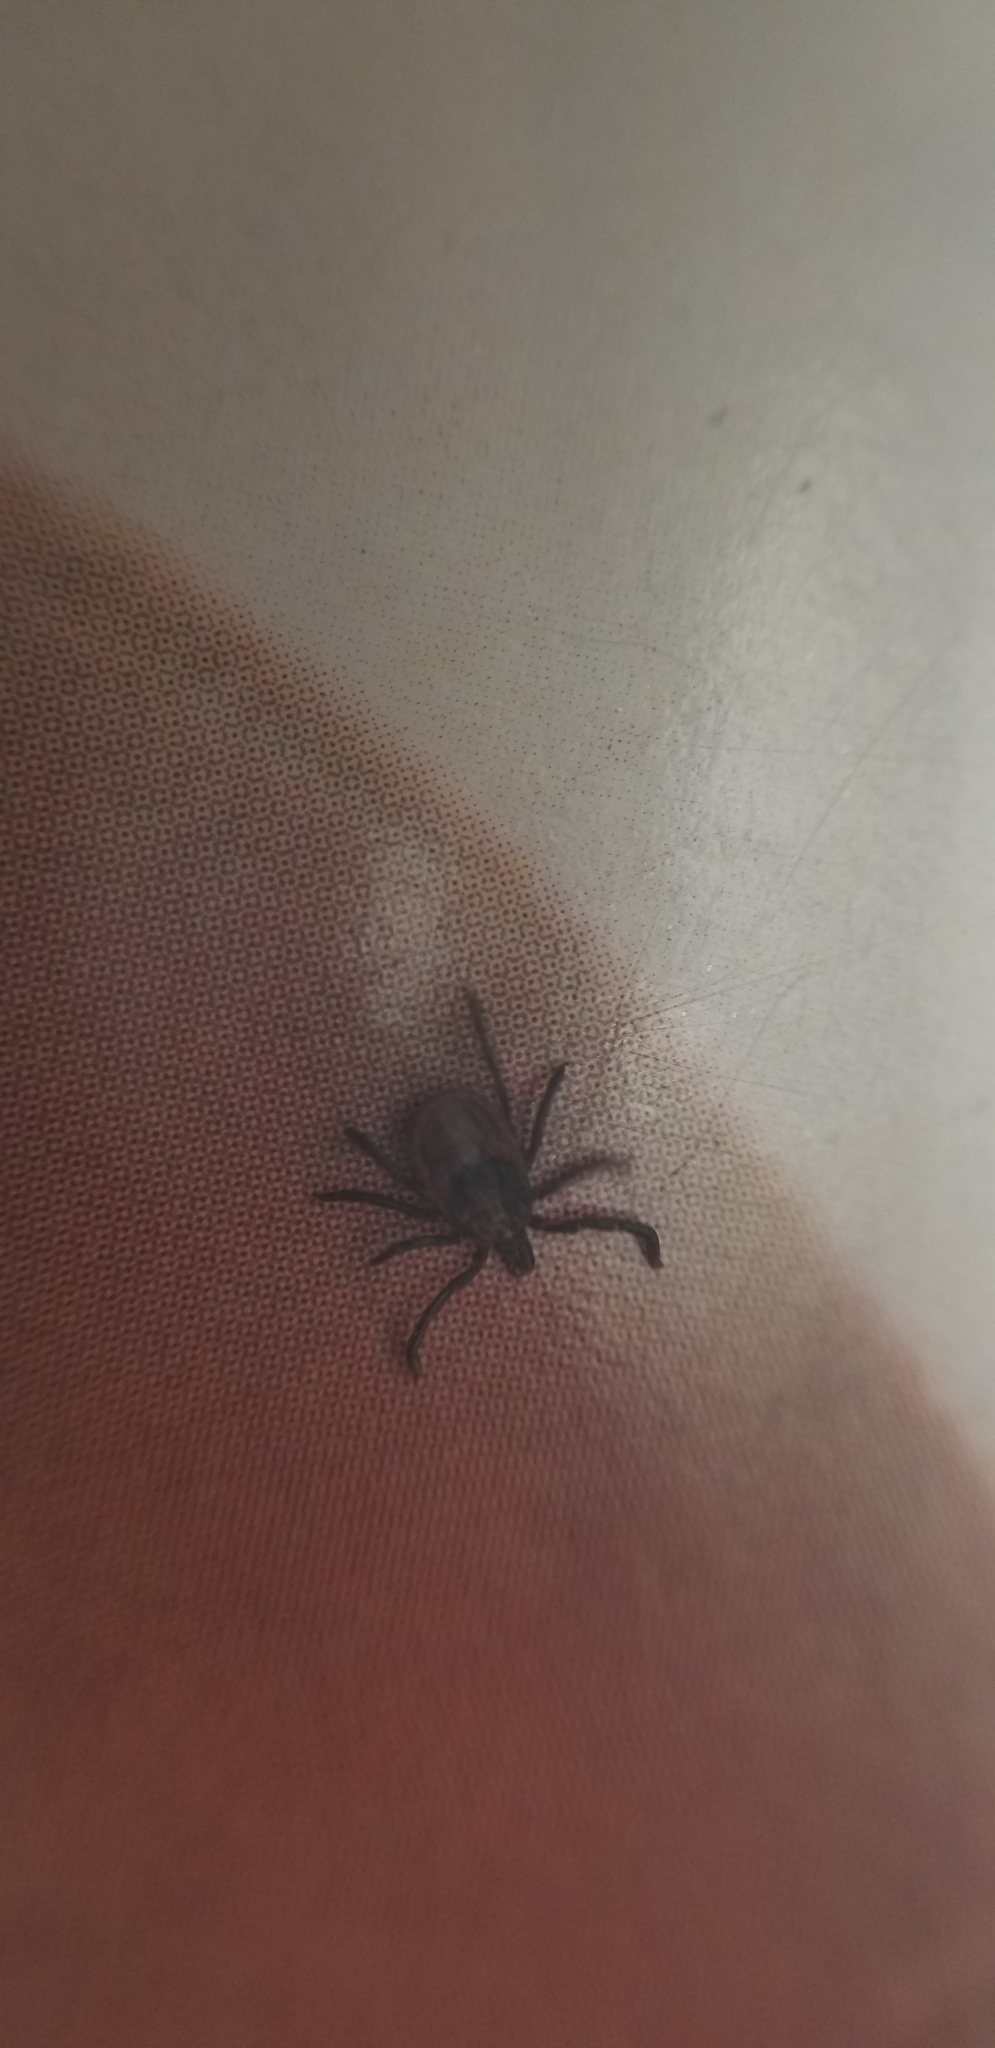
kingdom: Animalia
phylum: Arthropoda
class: Arachnida
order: Ixodida
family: Ixodidae
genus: Ixodes
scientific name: Ixodes pacificus
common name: California black-legged tick
